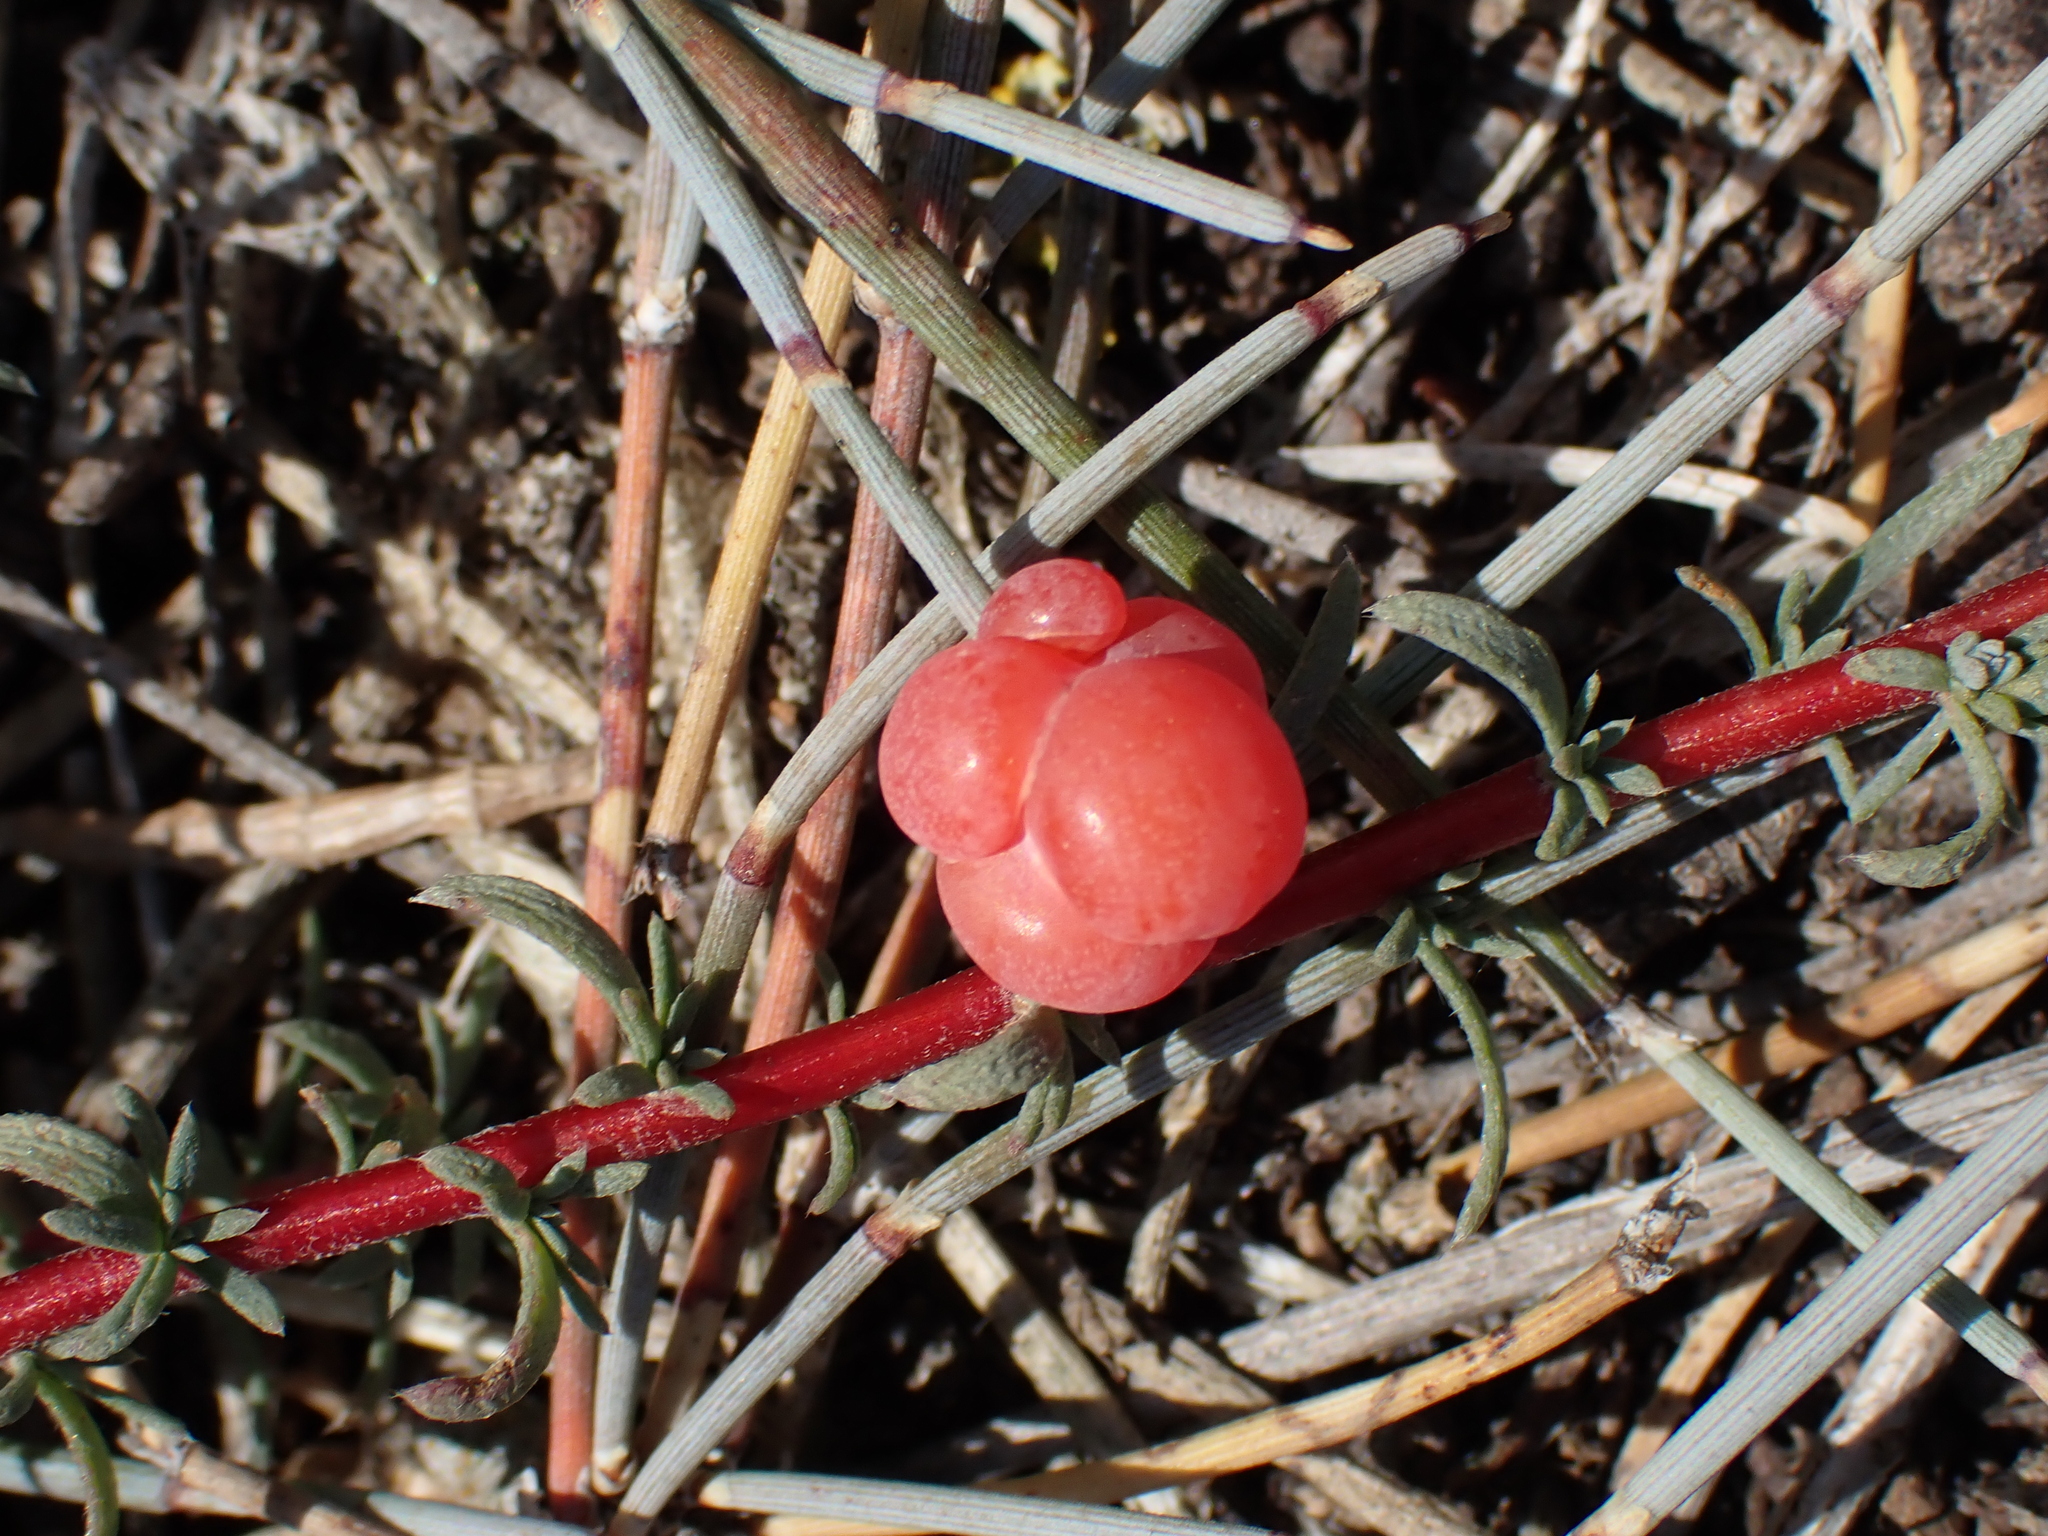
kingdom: Plantae
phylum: Tracheophyta
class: Gnetopsida
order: Ephedrales
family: Ephedraceae
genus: Ephedra
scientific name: Ephedra distachya
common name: Sea grape
